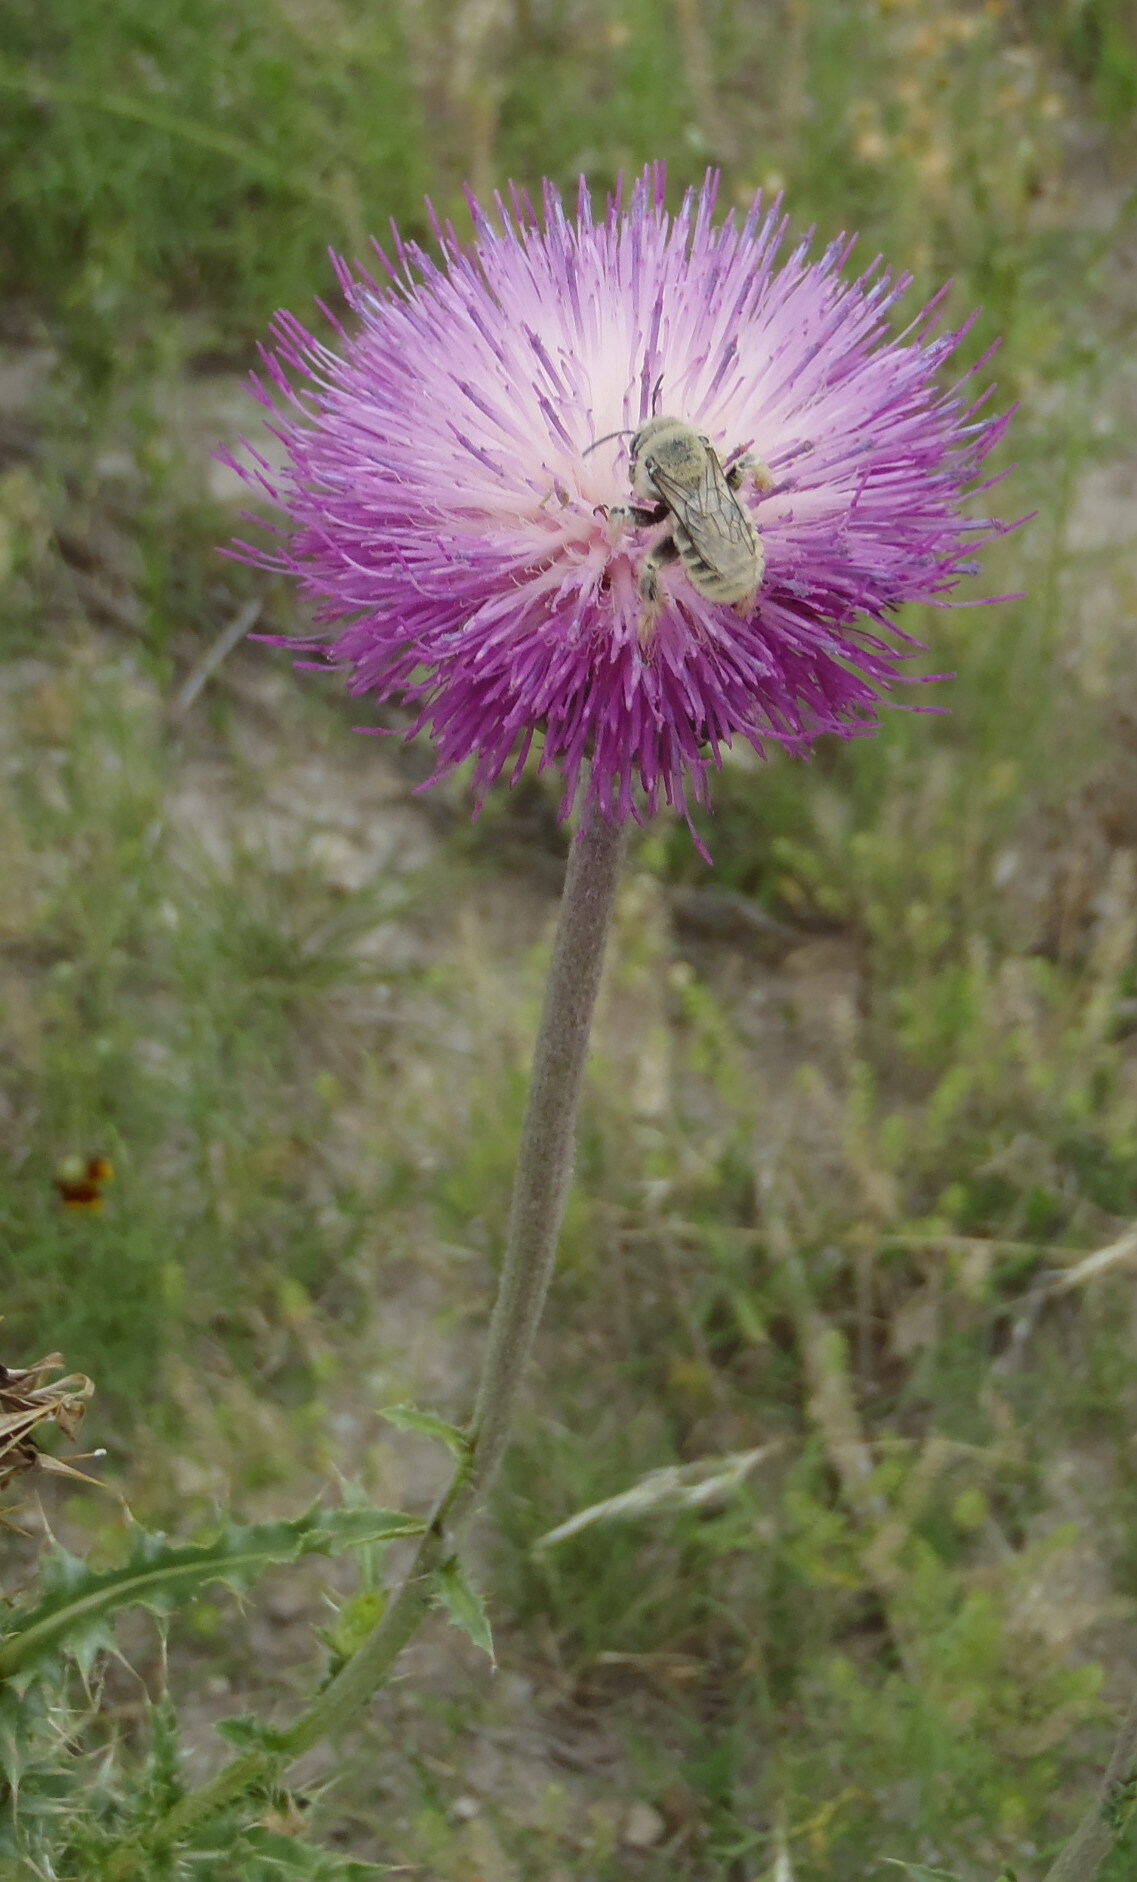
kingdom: Plantae
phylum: Tracheophyta
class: Magnoliopsida
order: Asterales
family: Asteraceae
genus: Carduus
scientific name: Carduus nutans
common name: Musk thistle
